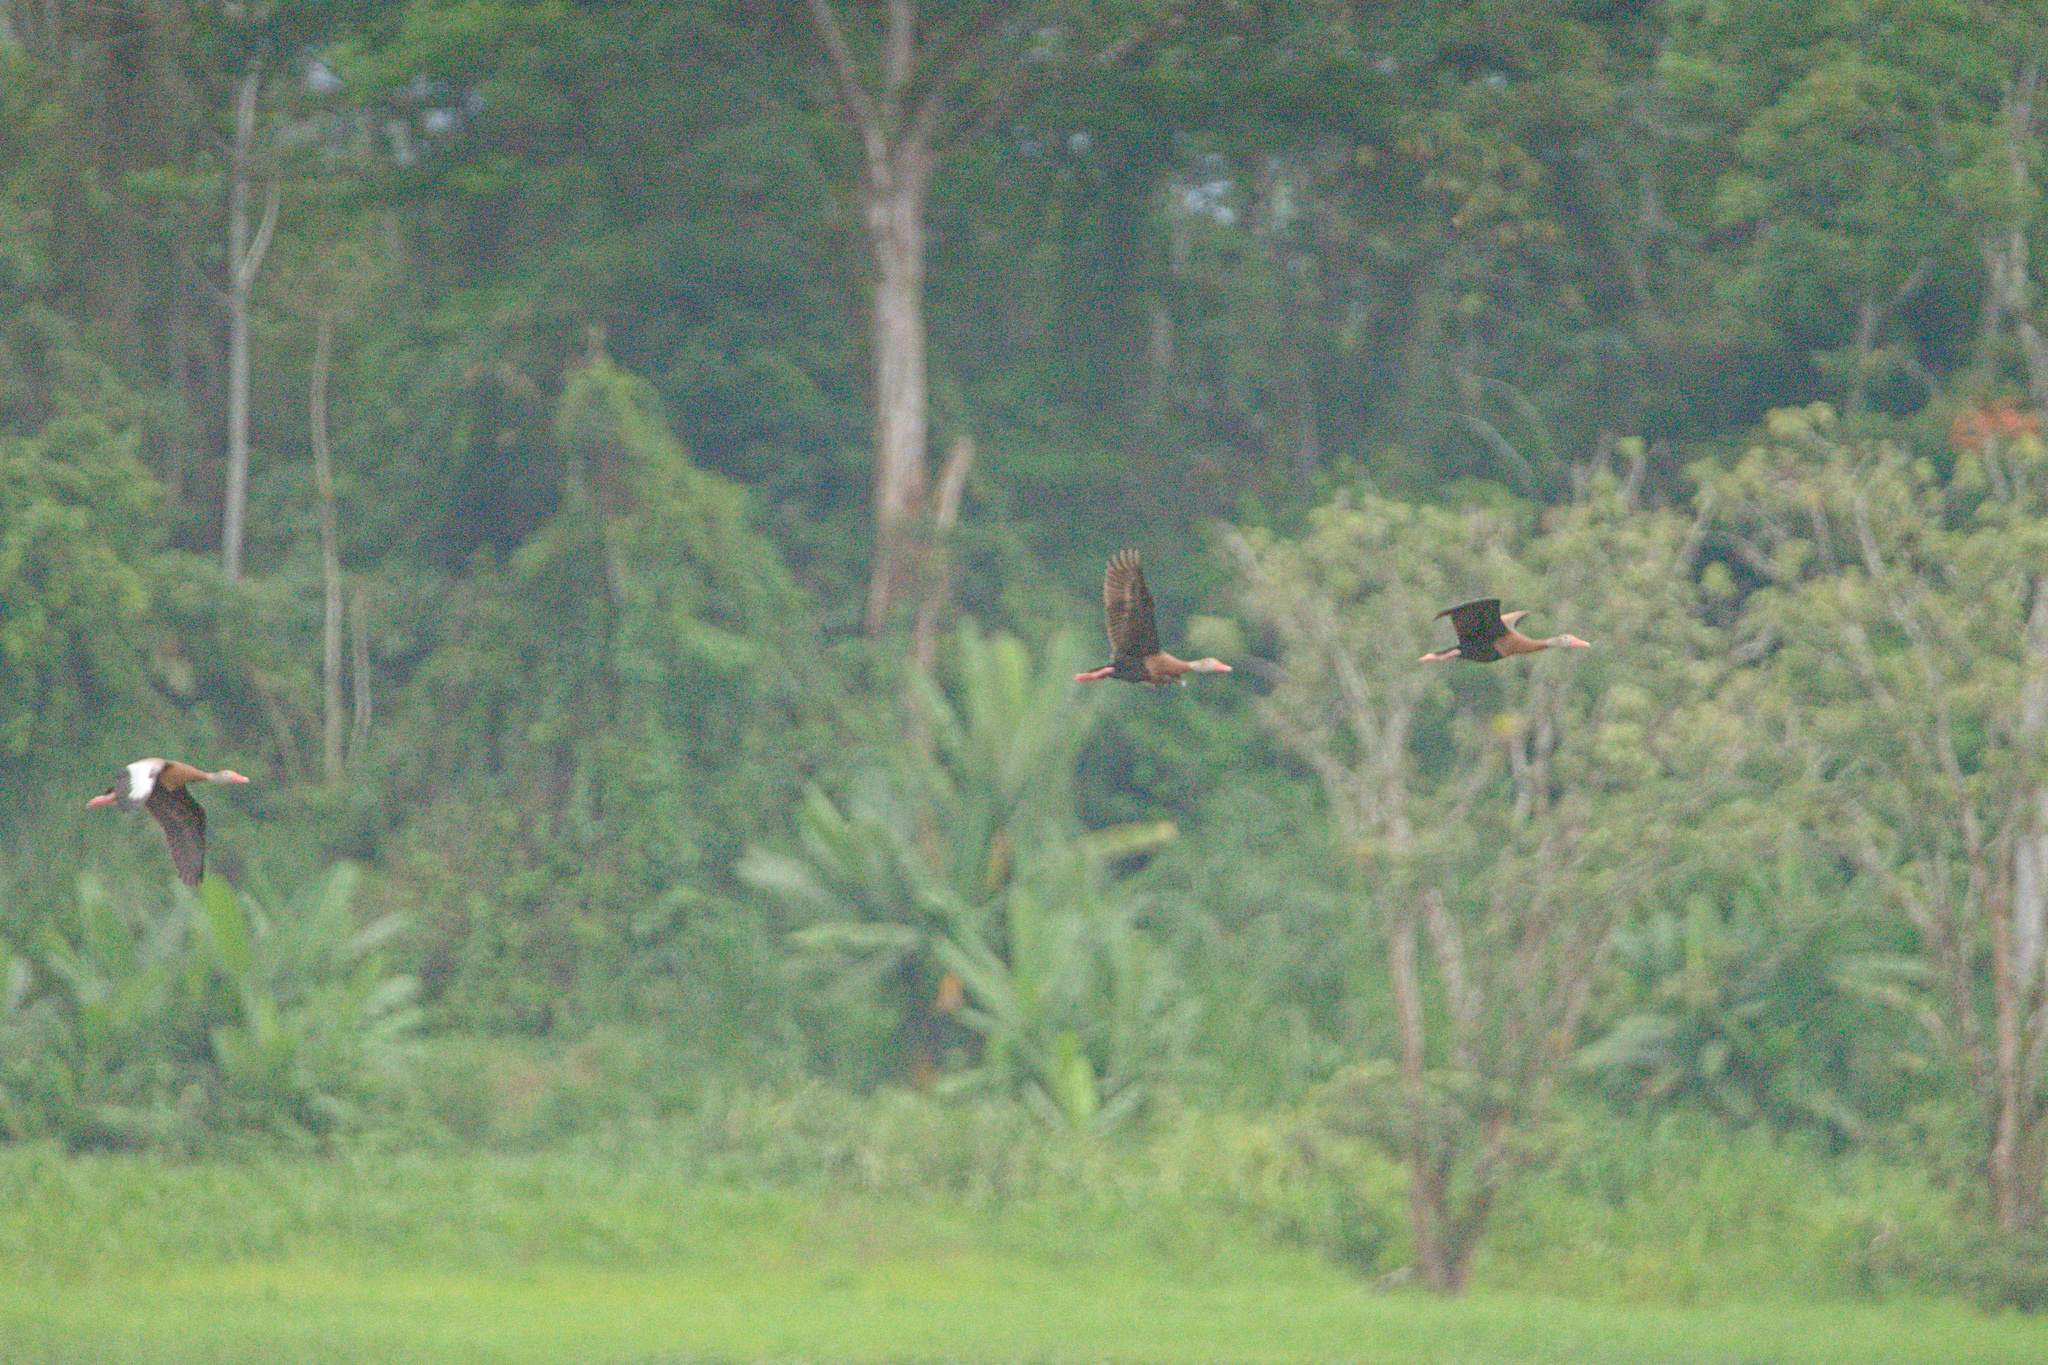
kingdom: Animalia
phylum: Chordata
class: Aves
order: Anseriformes
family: Anatidae
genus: Dendrocygna
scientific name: Dendrocygna autumnalis
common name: Black-bellied whistling duck
